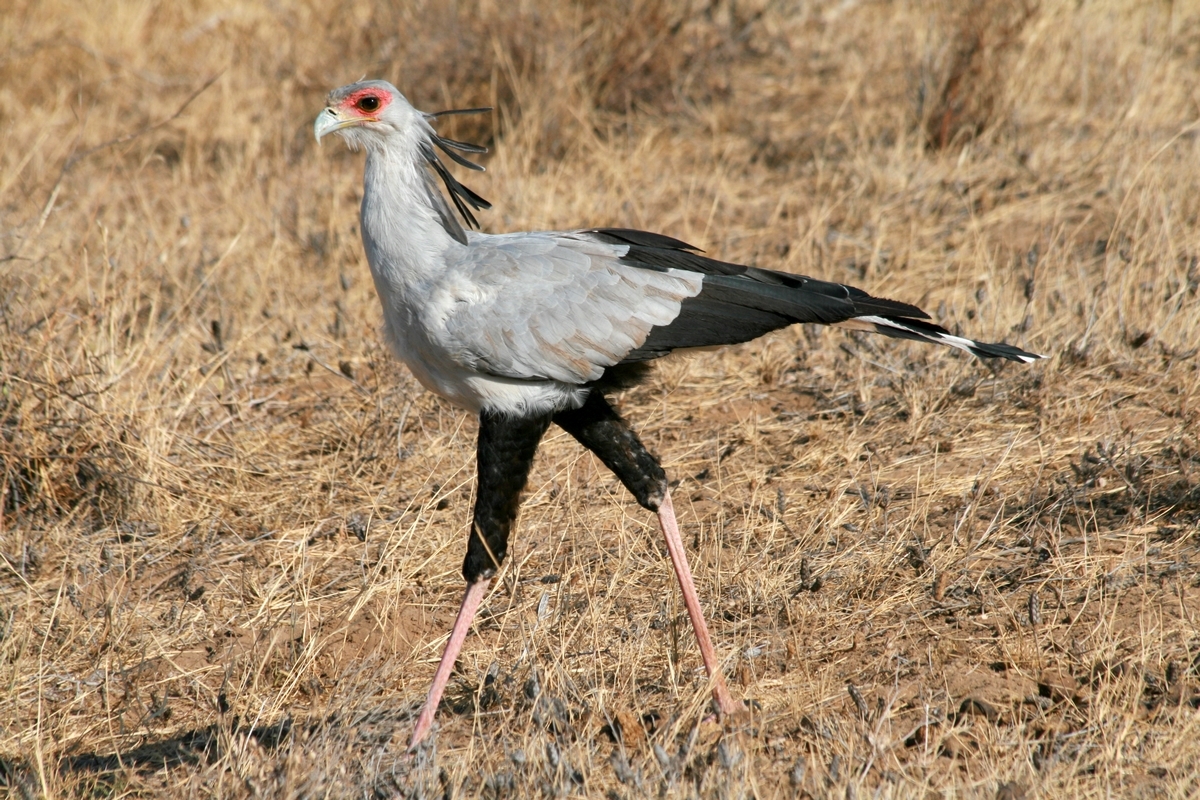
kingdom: Animalia
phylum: Chordata
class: Aves
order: Accipitriformes
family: Sagittariidae
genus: Sagittarius
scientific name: Sagittarius serpentarius
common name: Secretarybird
